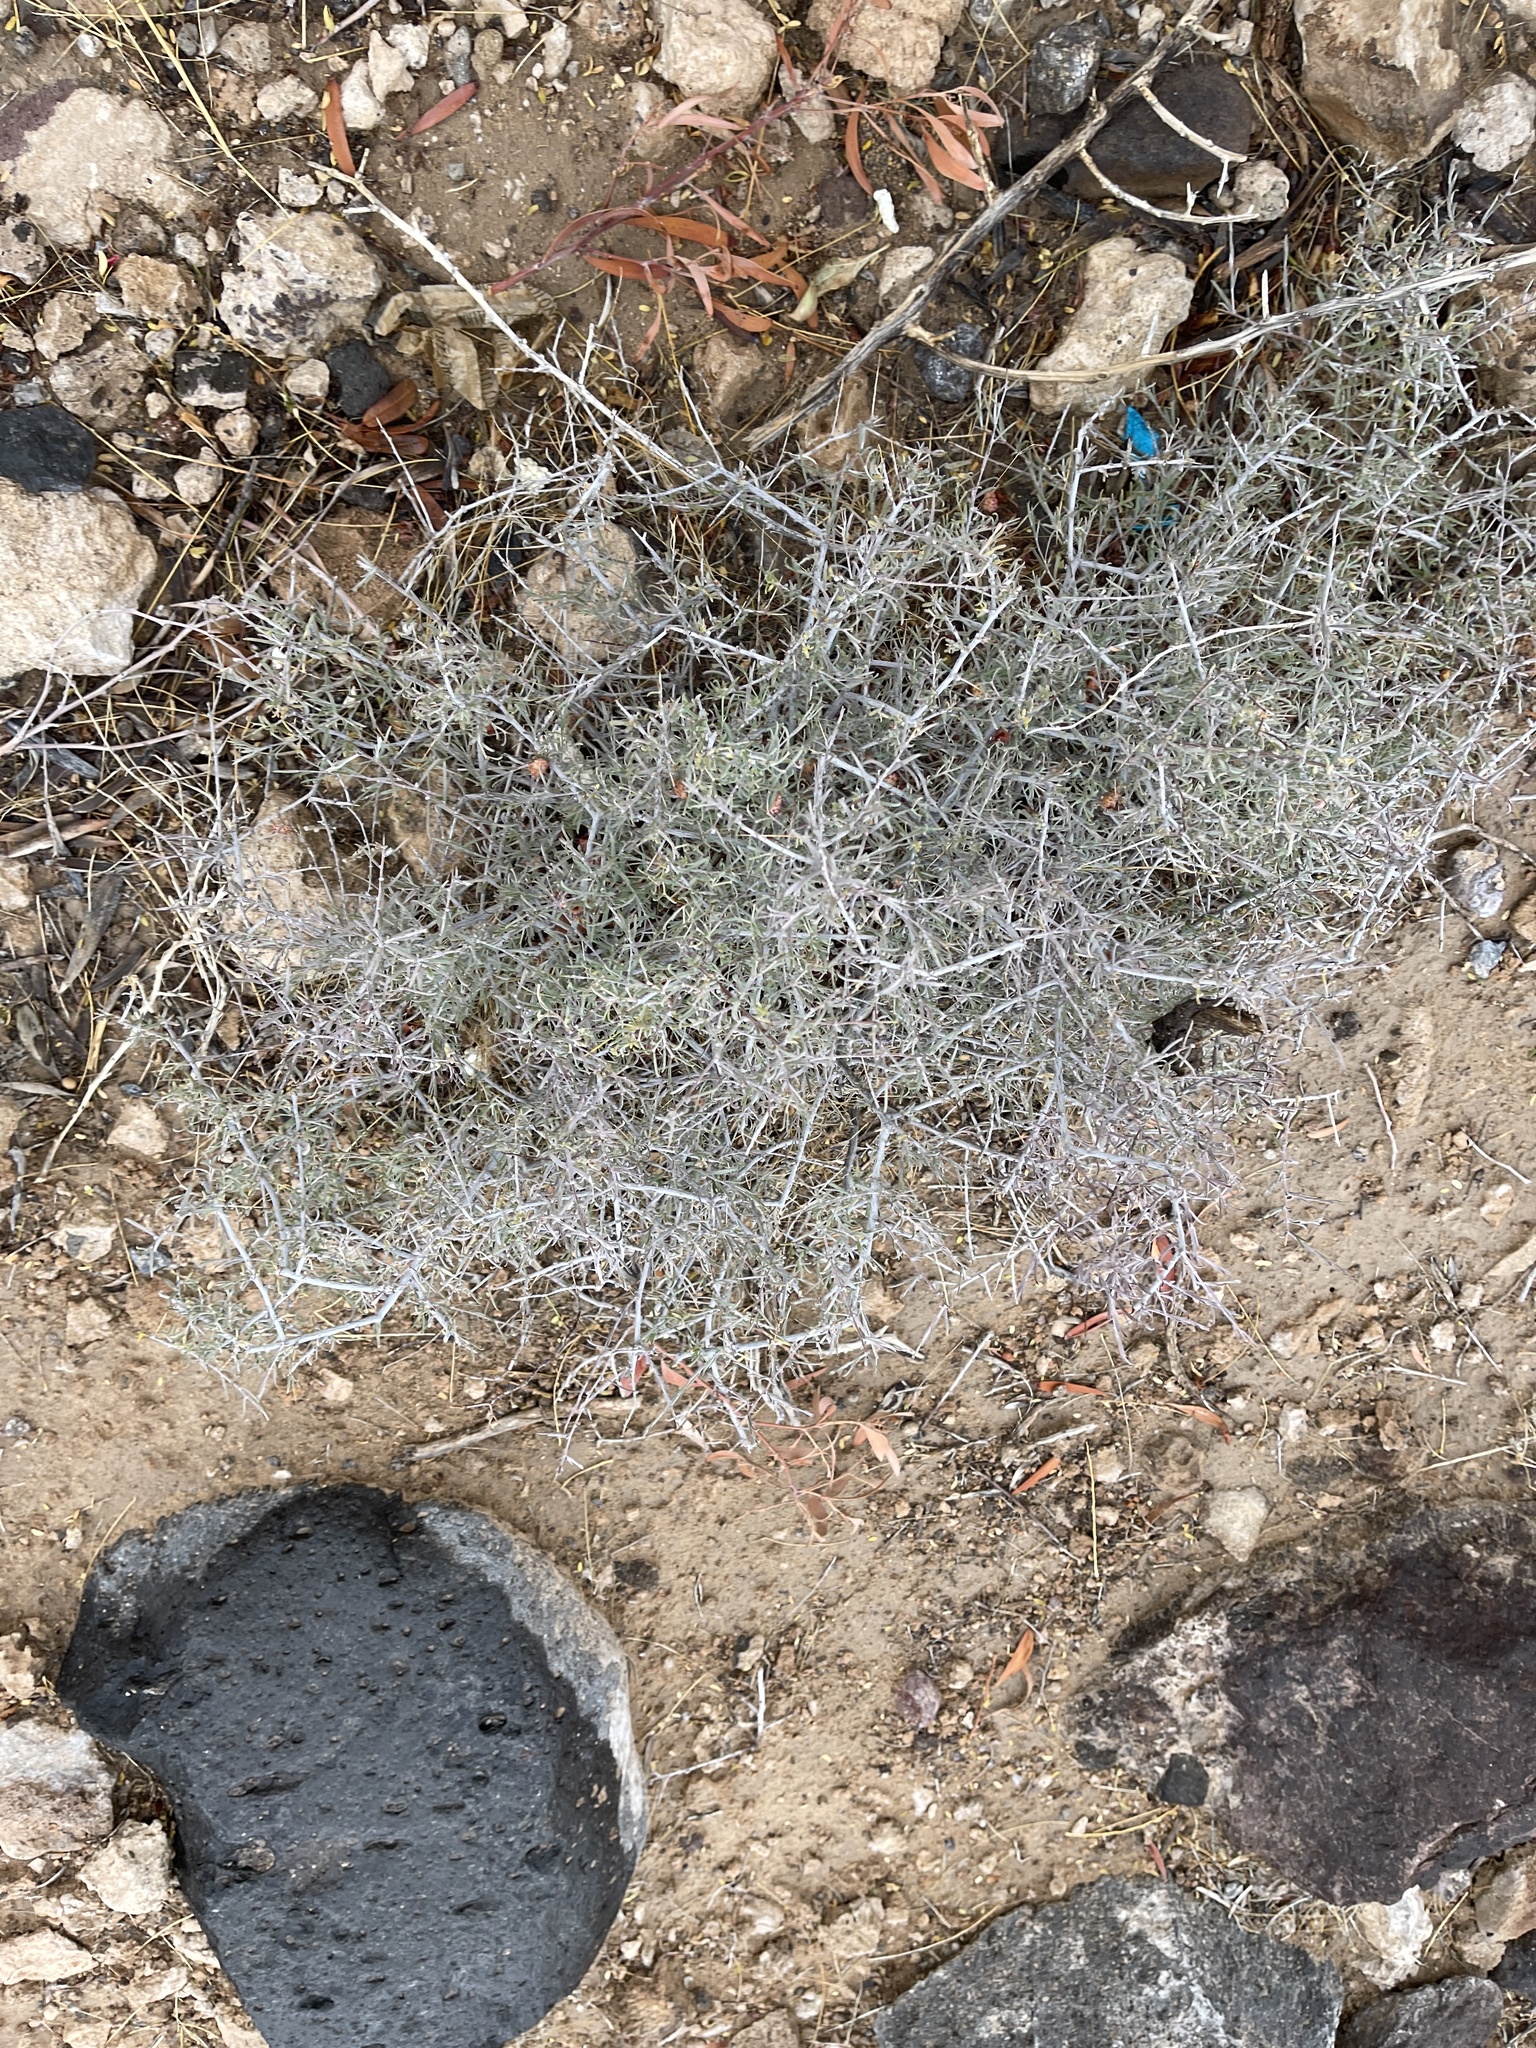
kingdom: Plantae
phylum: Tracheophyta
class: Magnoliopsida
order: Zygophyllales
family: Krameriaceae
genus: Krameria
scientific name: Krameria erecta
